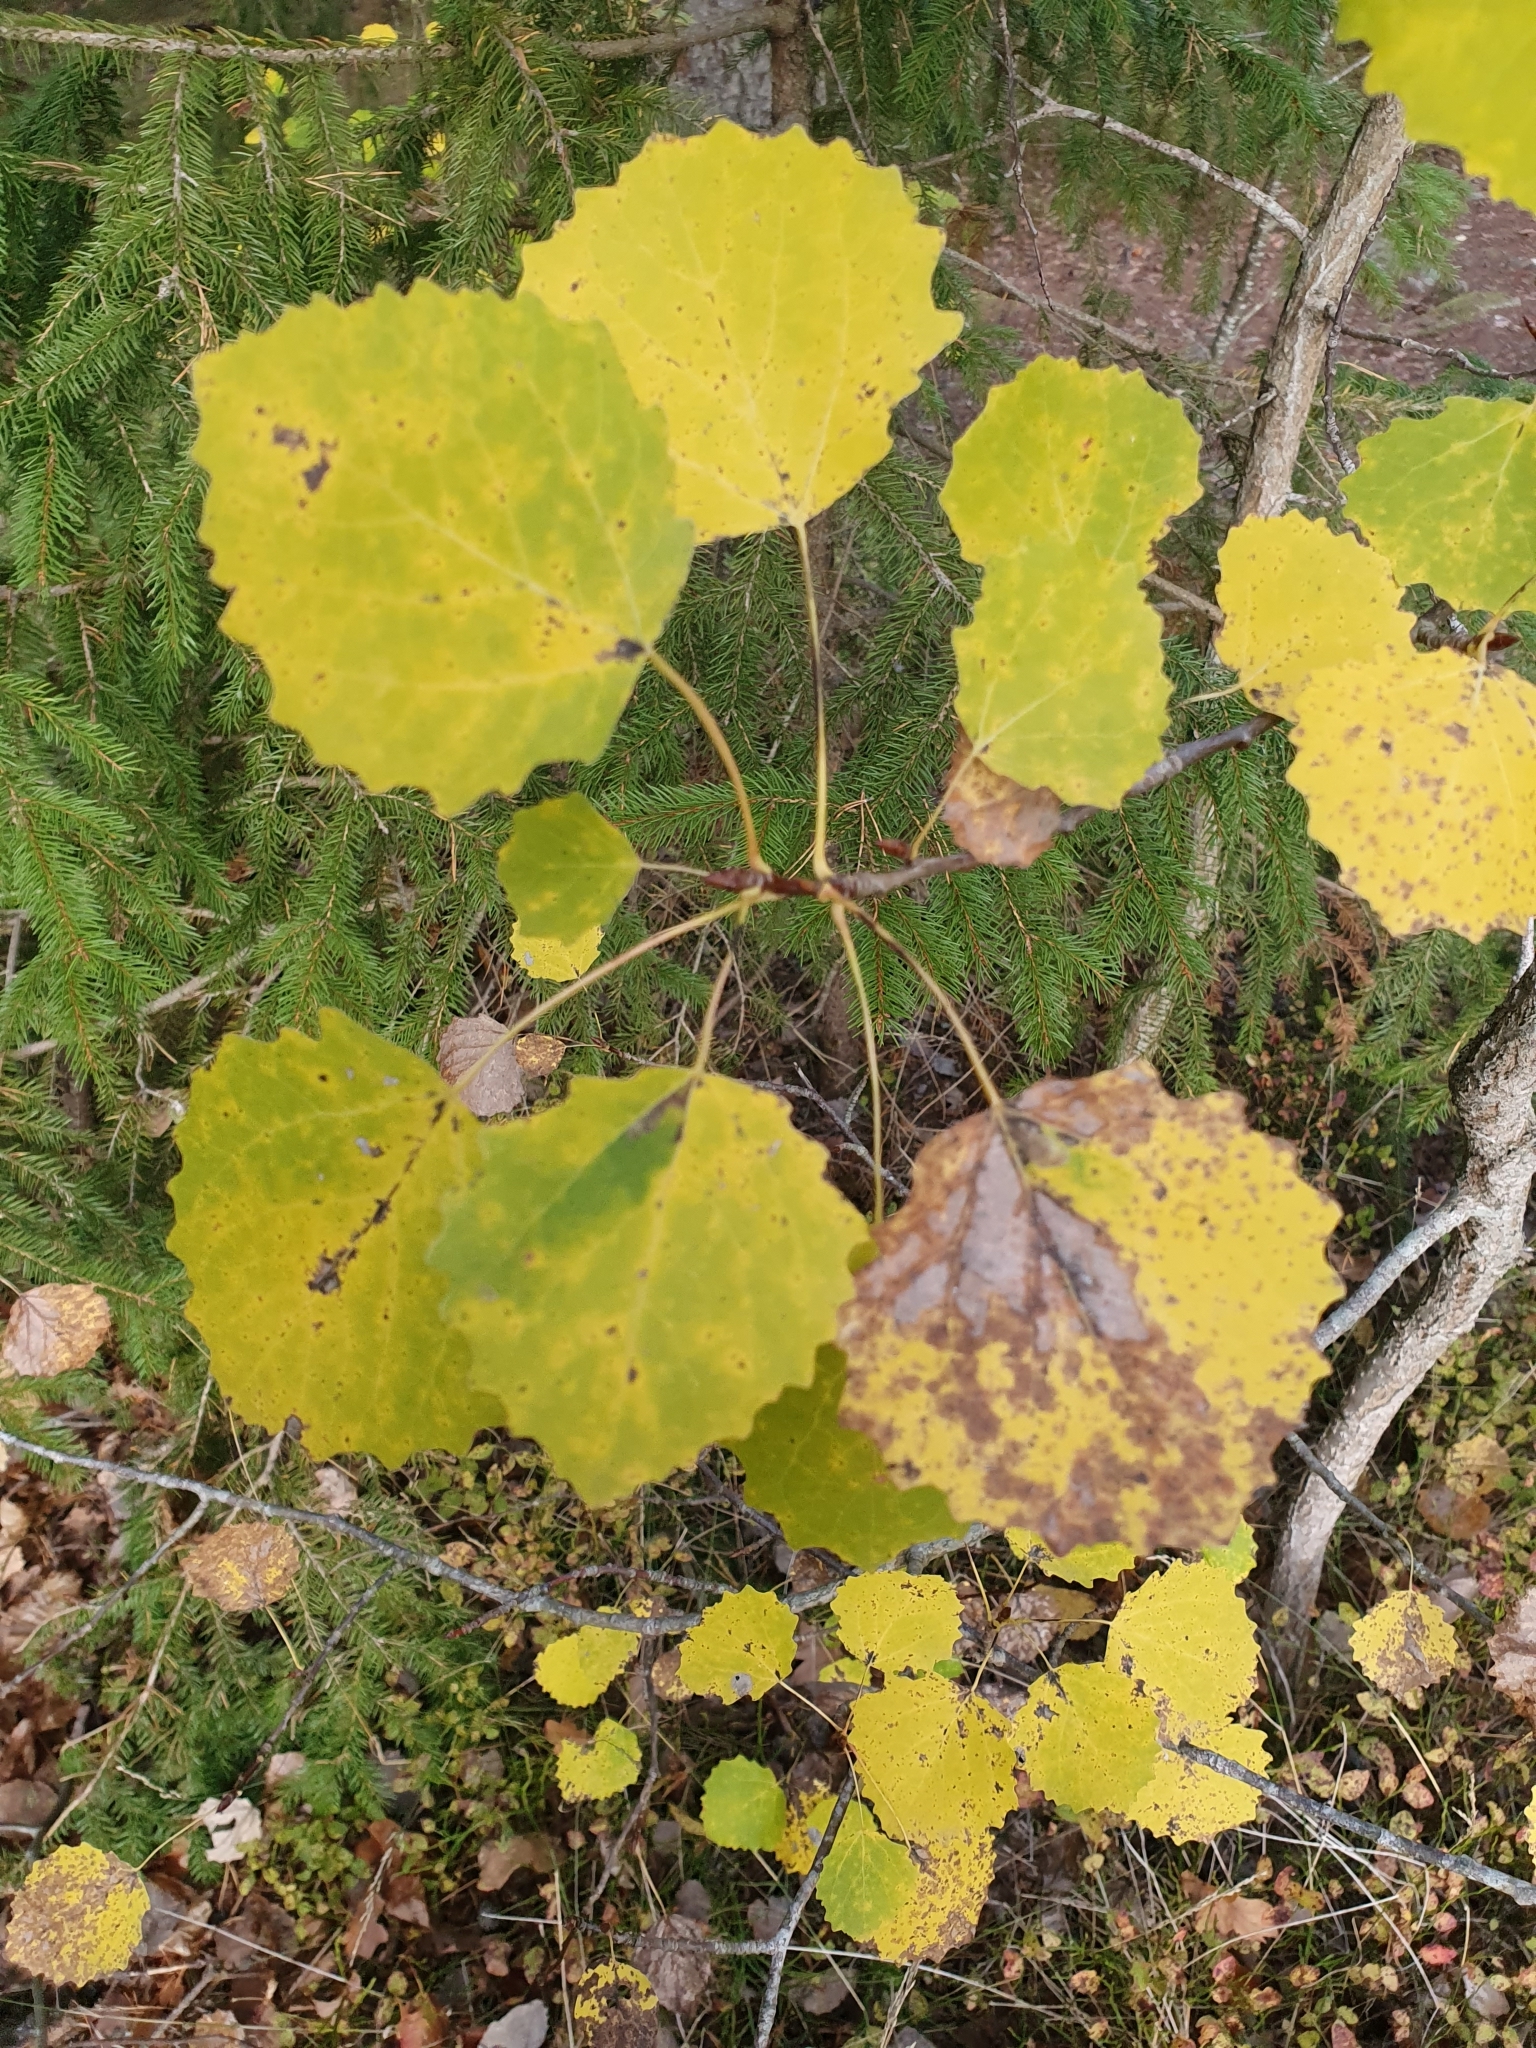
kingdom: Plantae
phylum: Tracheophyta
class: Magnoliopsida
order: Malpighiales
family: Salicaceae
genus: Populus
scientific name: Populus tremula
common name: European aspen
